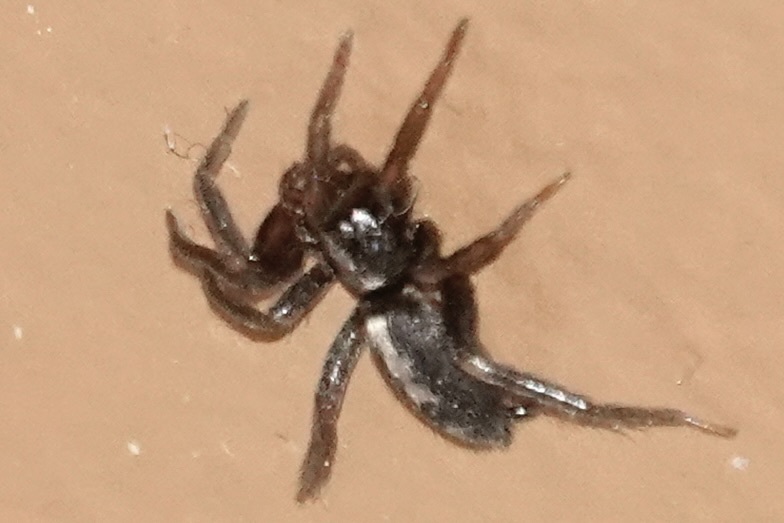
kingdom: Animalia
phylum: Arthropoda
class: Arachnida
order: Araneae
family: Gnaphosidae
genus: Herpyllus
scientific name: Herpyllus ecclesiasticus
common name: Eastern parson spider
